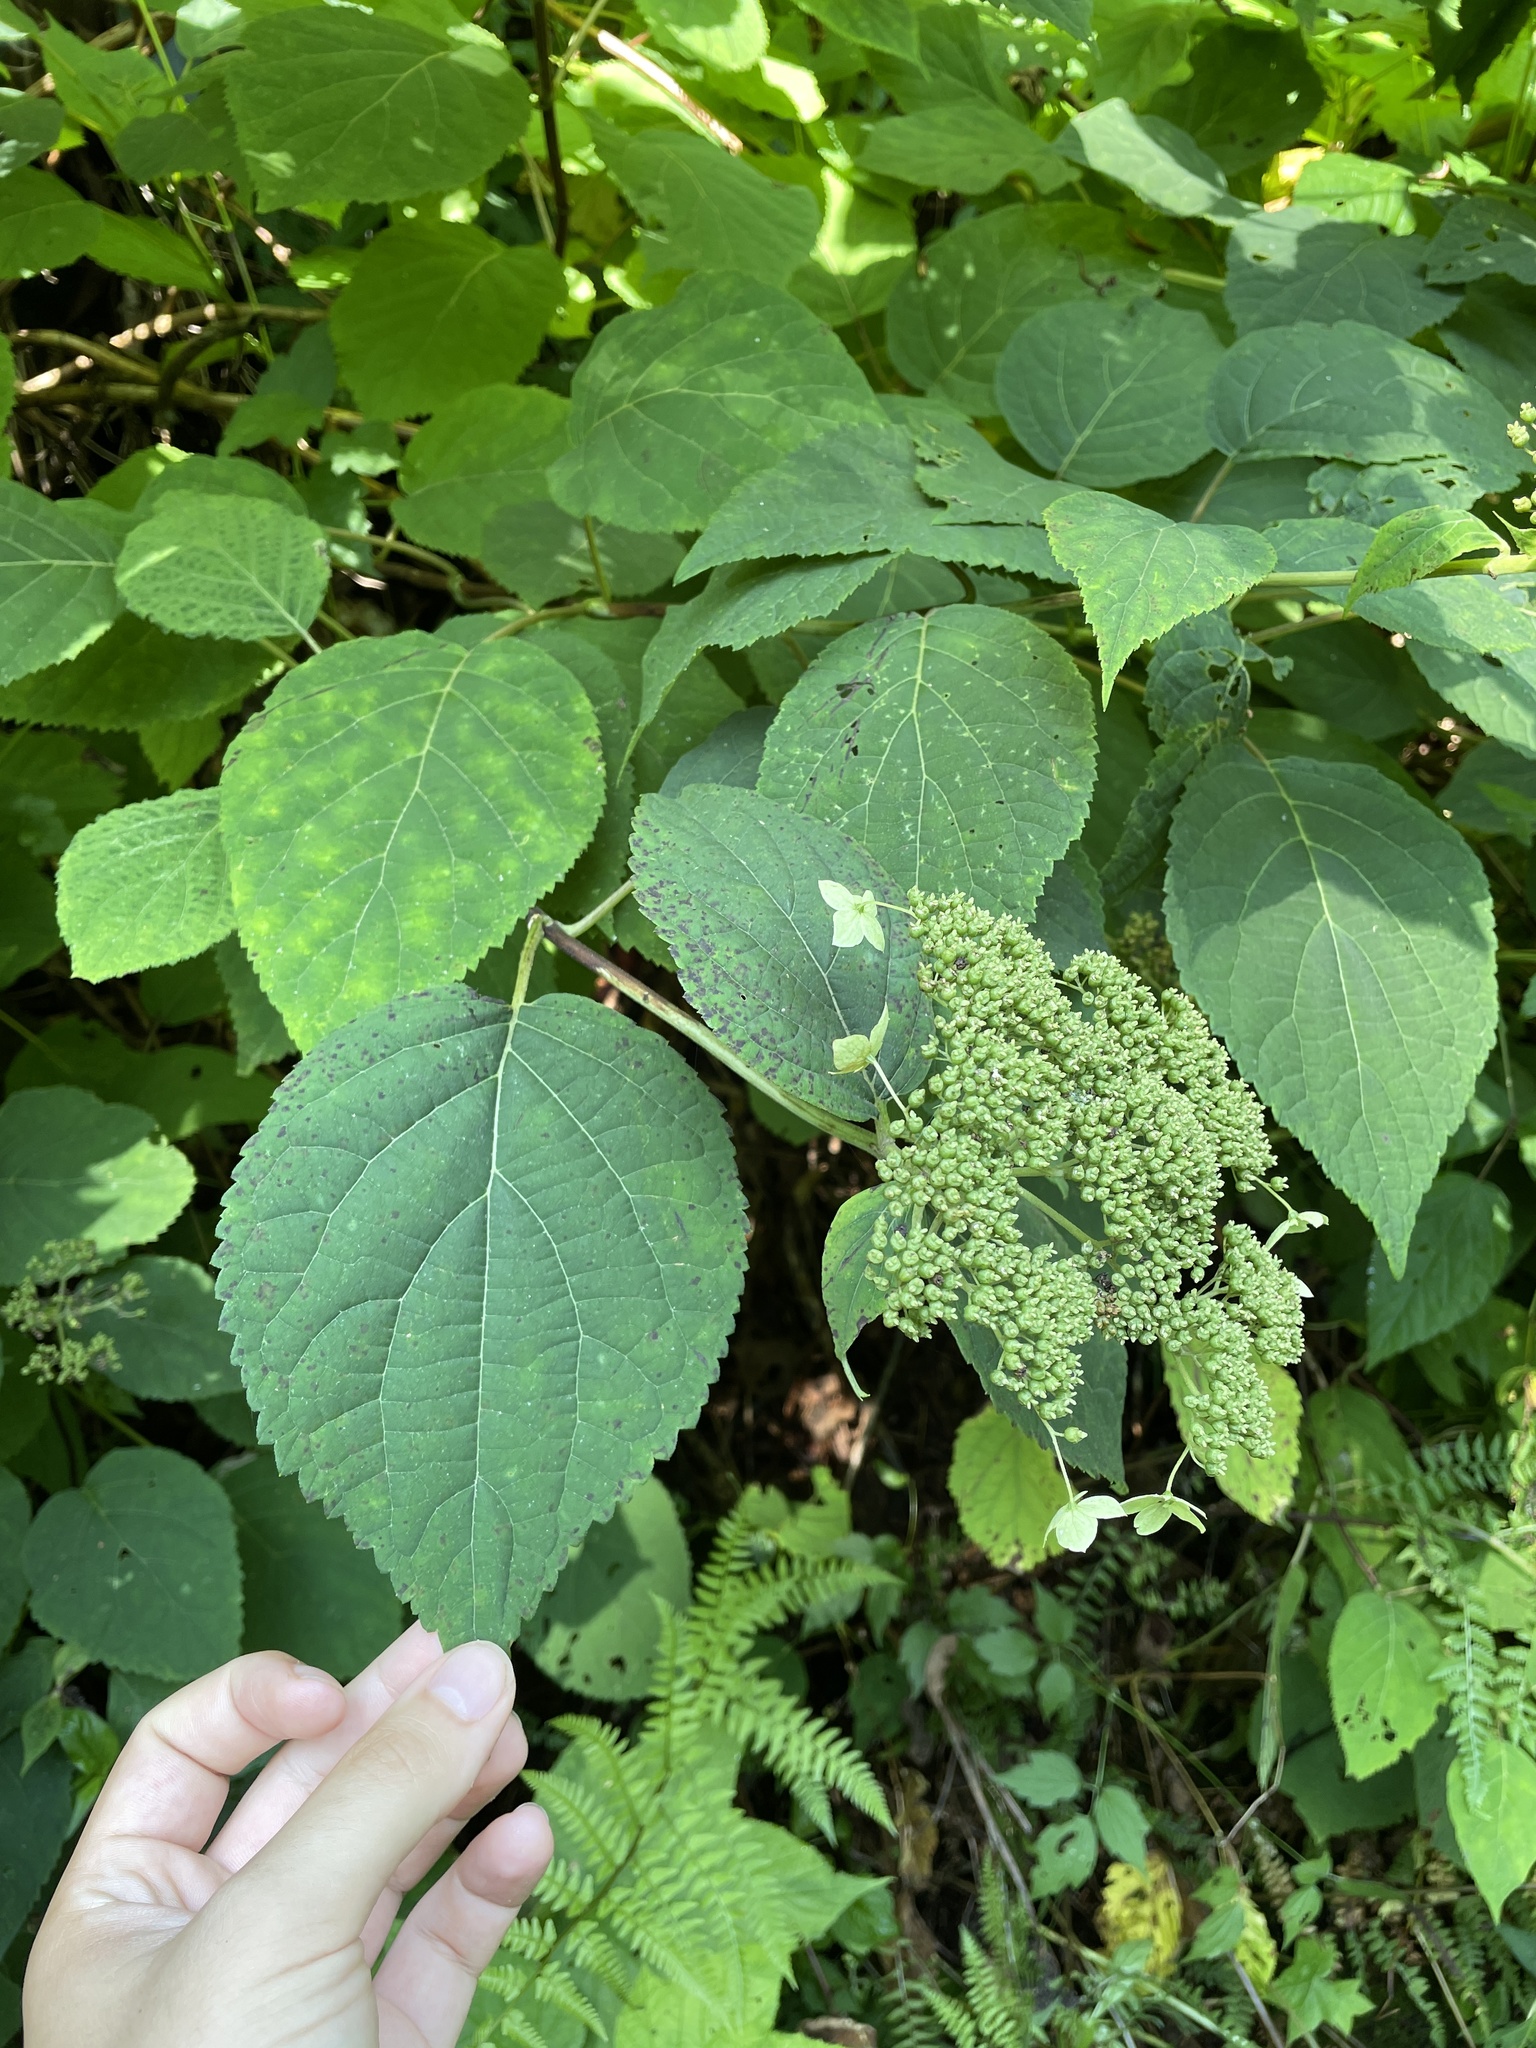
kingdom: Plantae
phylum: Tracheophyta
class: Magnoliopsida
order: Cornales
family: Hydrangeaceae
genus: Hydrangea
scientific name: Hydrangea arborescens
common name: Sevenbark
